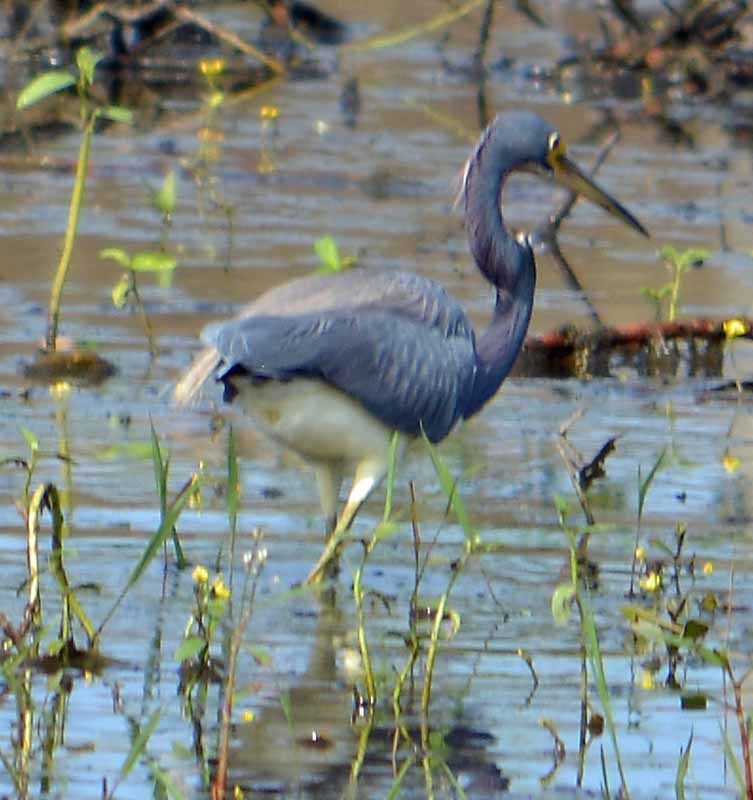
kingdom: Animalia
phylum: Chordata
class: Aves
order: Pelecaniformes
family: Ardeidae
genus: Egretta
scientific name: Egretta tricolor
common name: Tricolored heron
